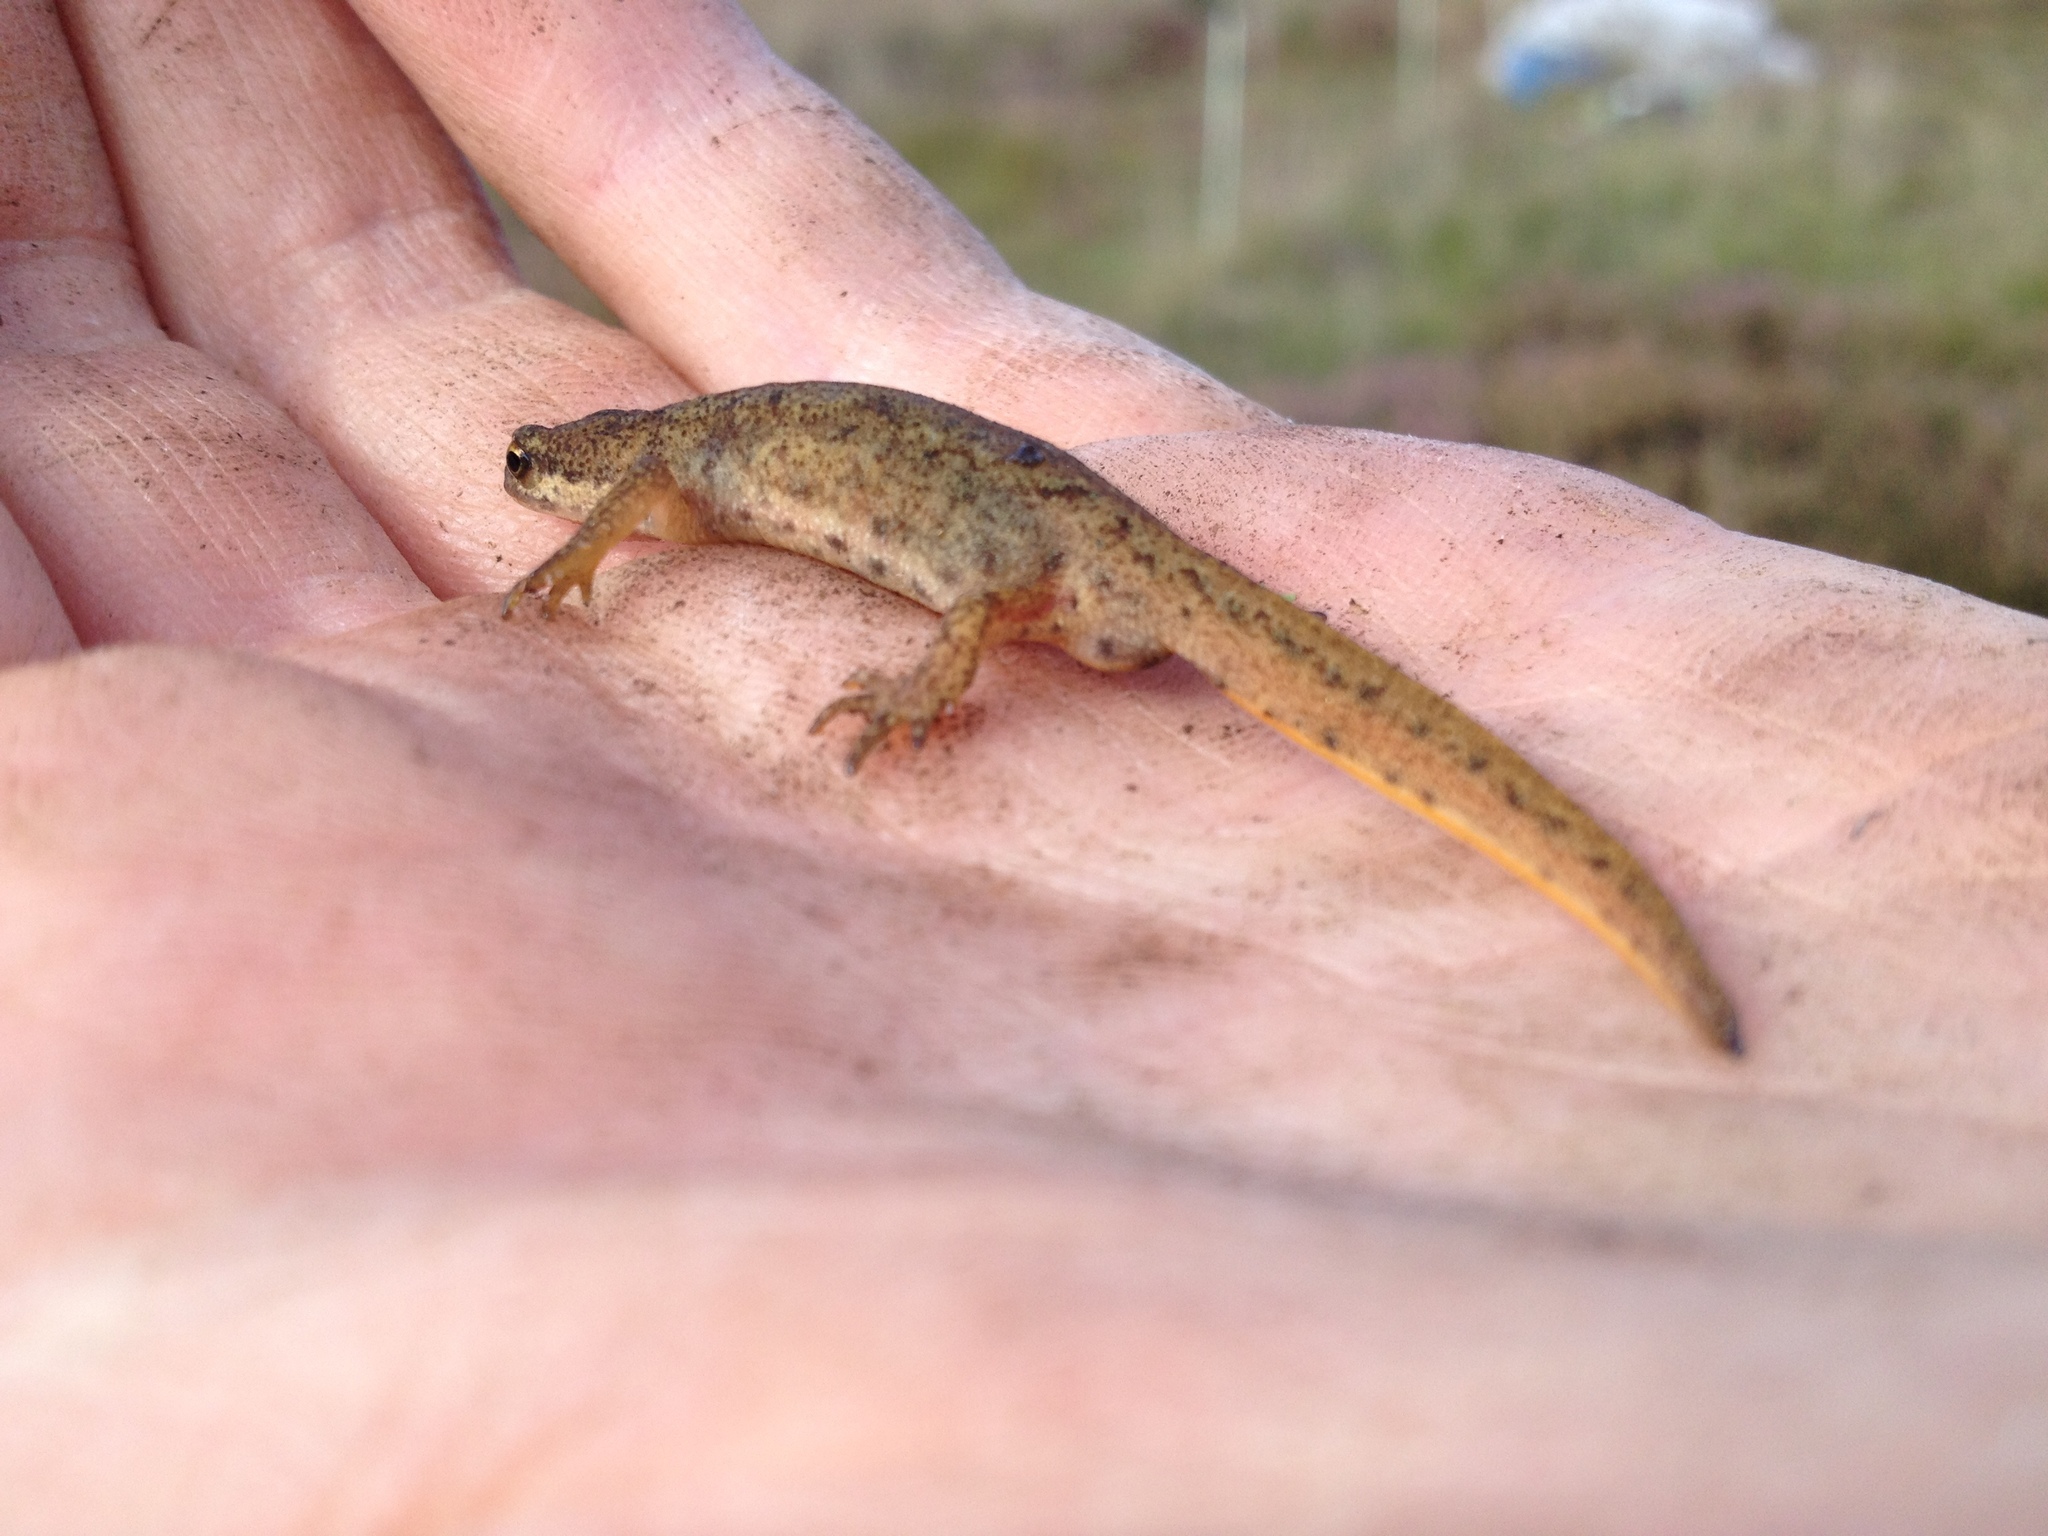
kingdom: Animalia
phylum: Chordata
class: Amphibia
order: Caudata
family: Salamandridae
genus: Lissotriton
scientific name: Lissotriton vulgaris
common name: Smooth newt
